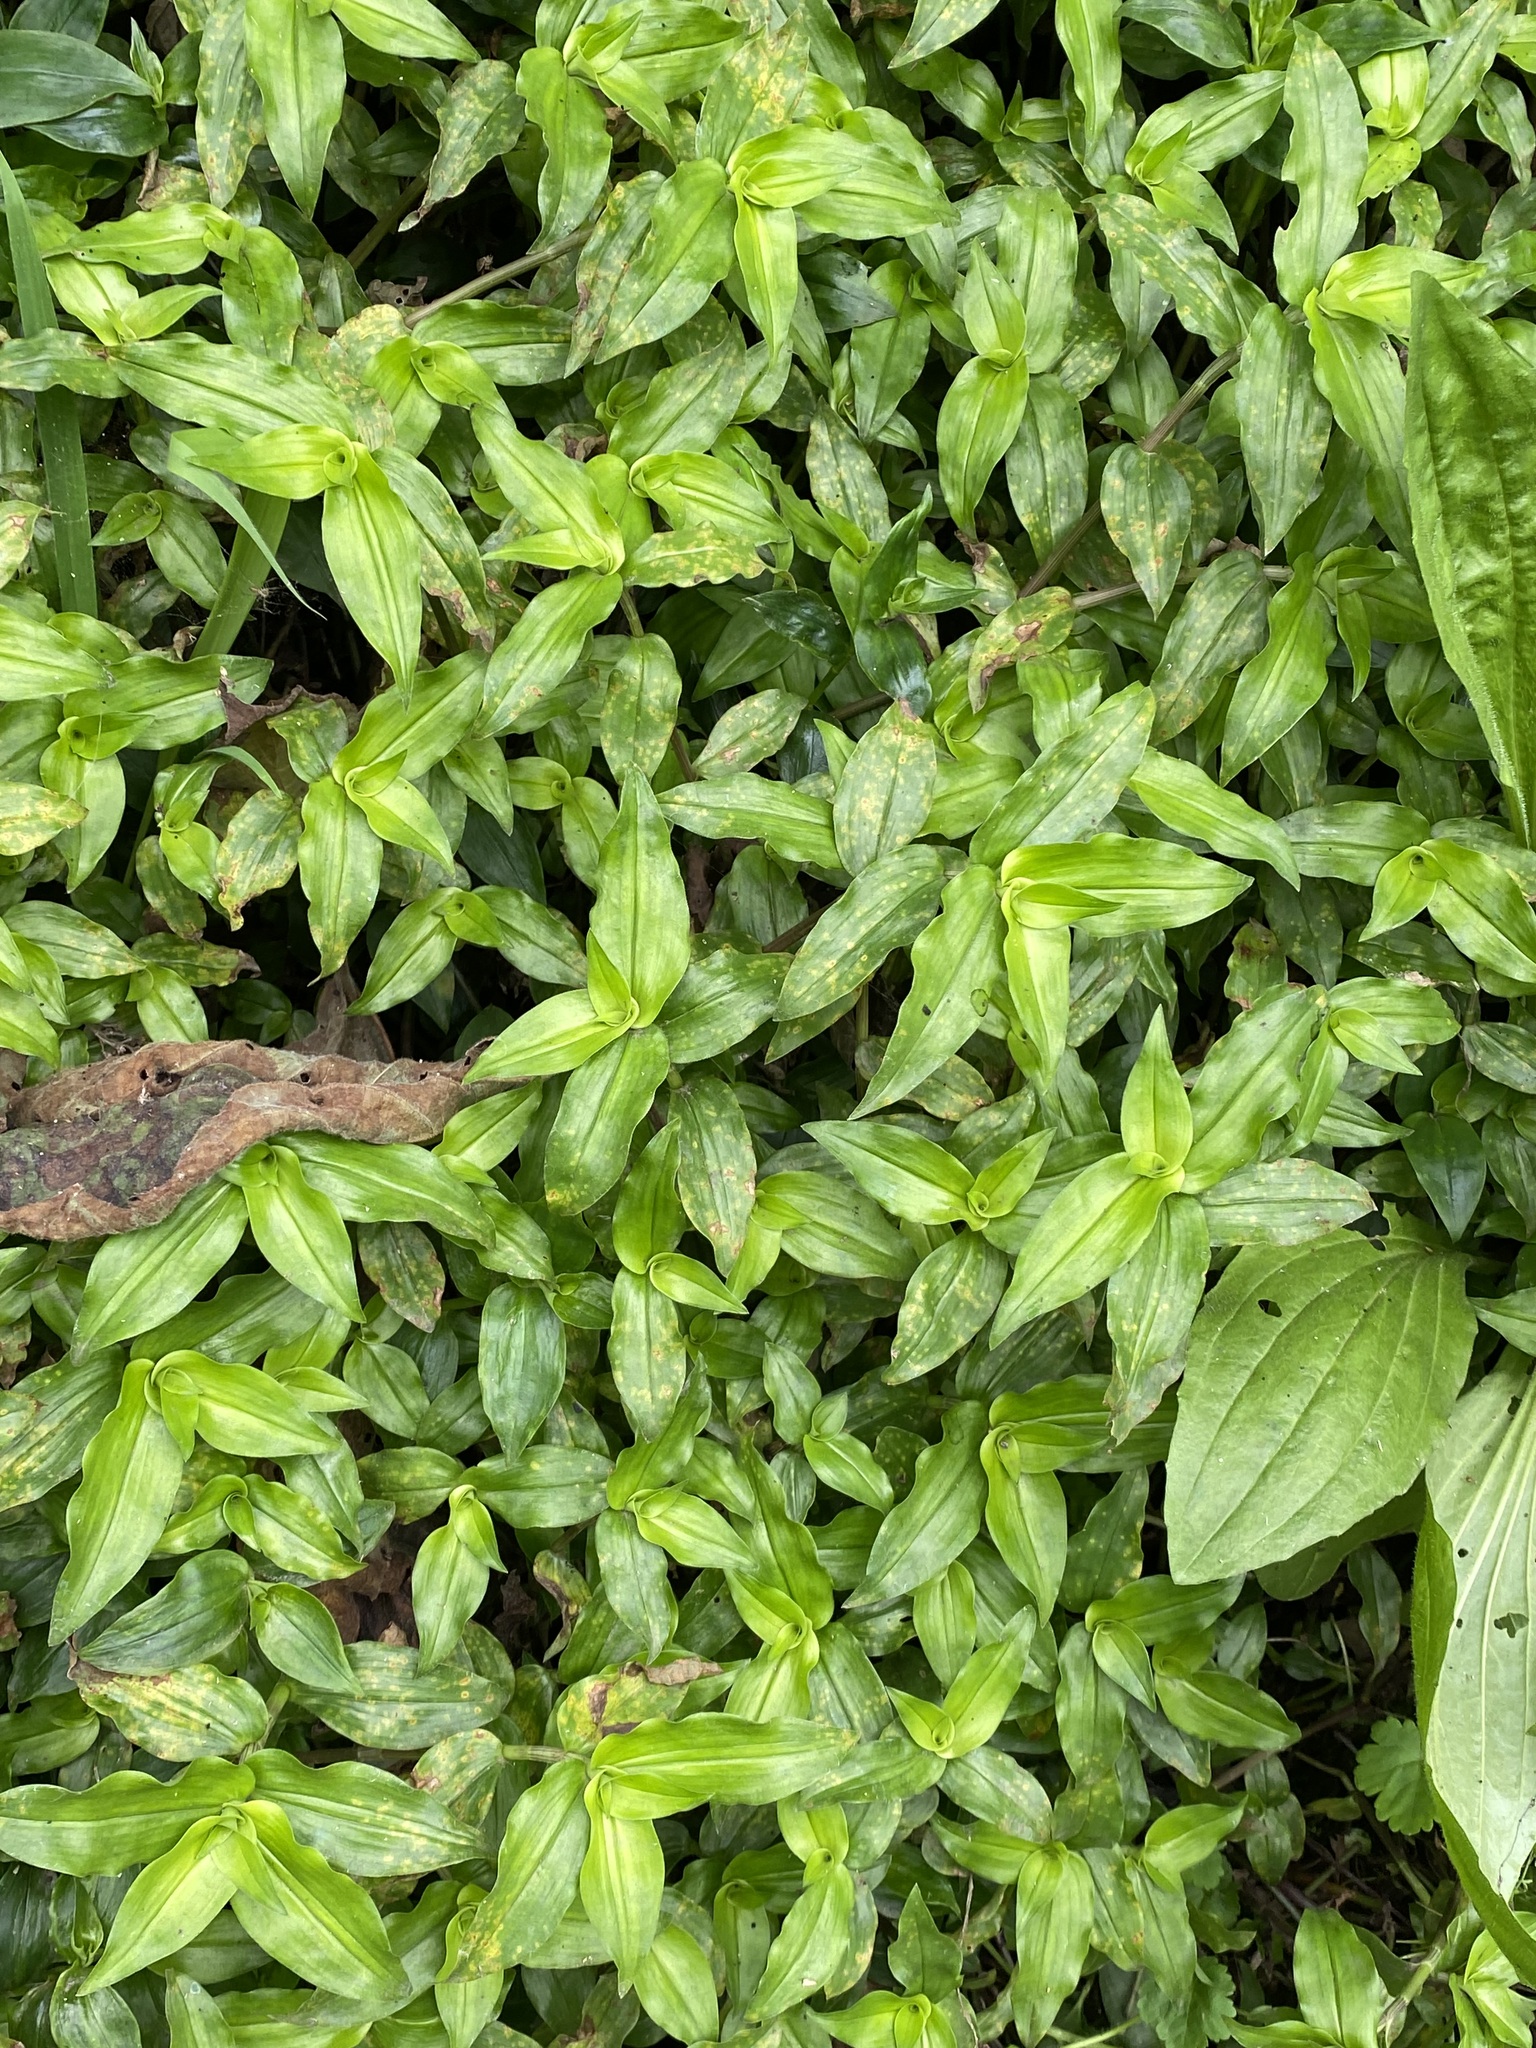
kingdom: Plantae
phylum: Tracheophyta
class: Liliopsida
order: Commelinales
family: Commelinaceae
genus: Tradescantia
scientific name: Tradescantia fluminensis
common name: Wandering-jew
